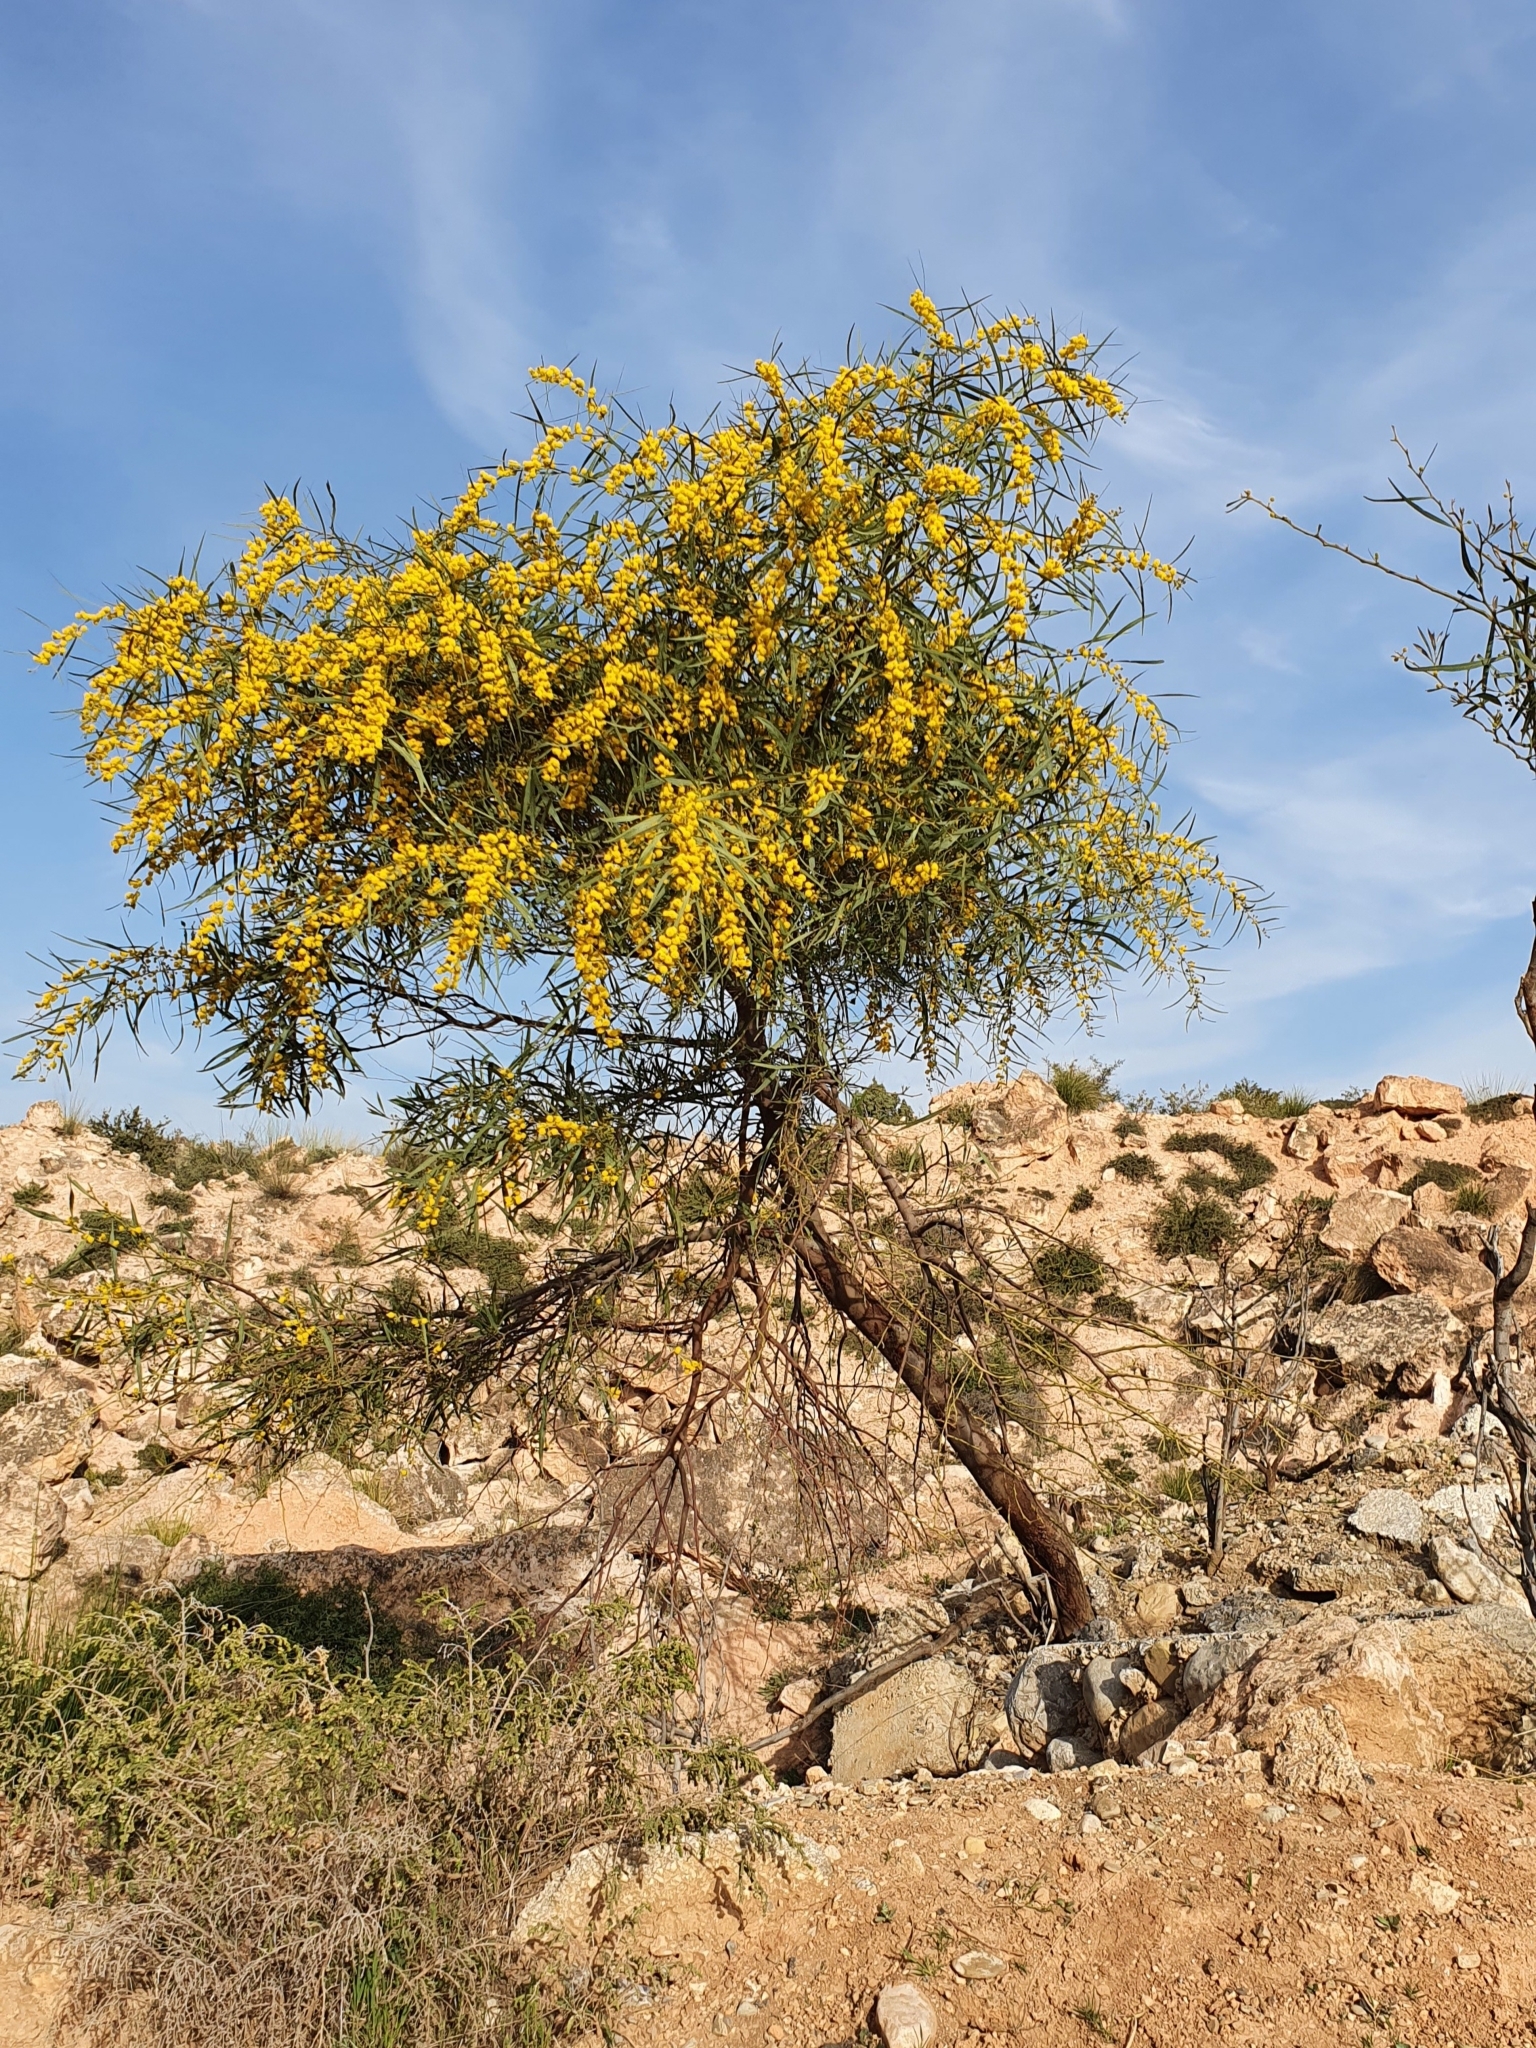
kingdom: Plantae
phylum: Tracheophyta
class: Magnoliopsida
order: Fabales
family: Fabaceae
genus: Acacia
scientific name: Acacia saligna
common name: Orange wattle
